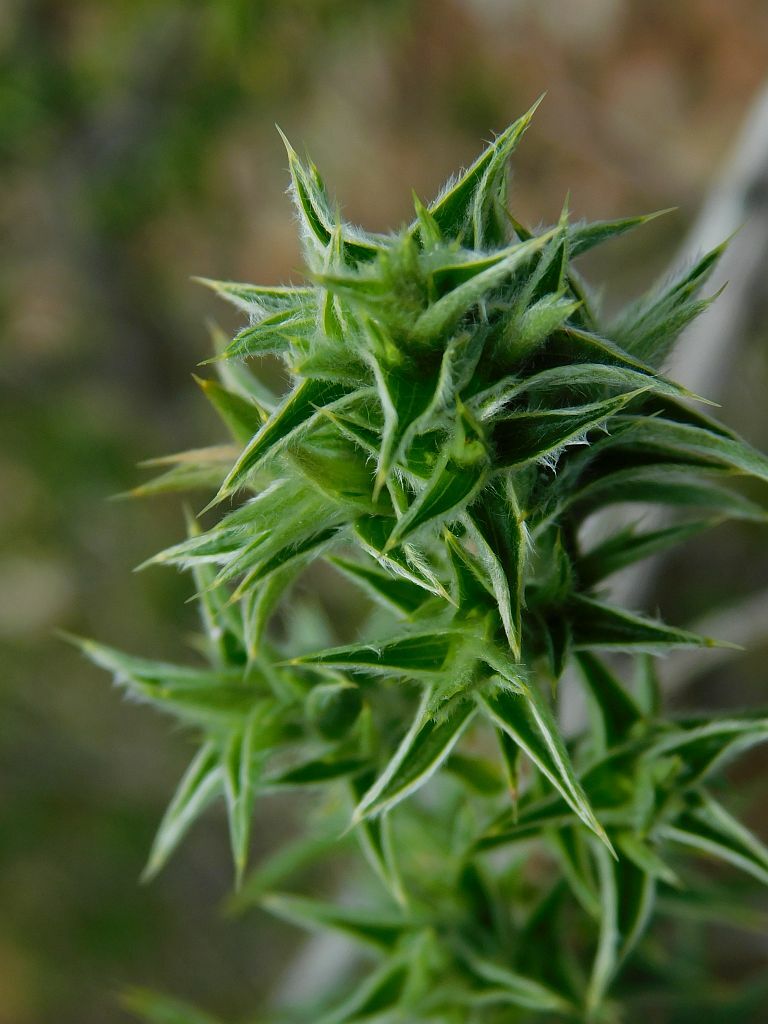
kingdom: Plantae
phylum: Tracheophyta
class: Magnoliopsida
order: Rosales
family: Rosaceae
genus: Cliffortia
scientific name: Cliffortia ruscifolia
